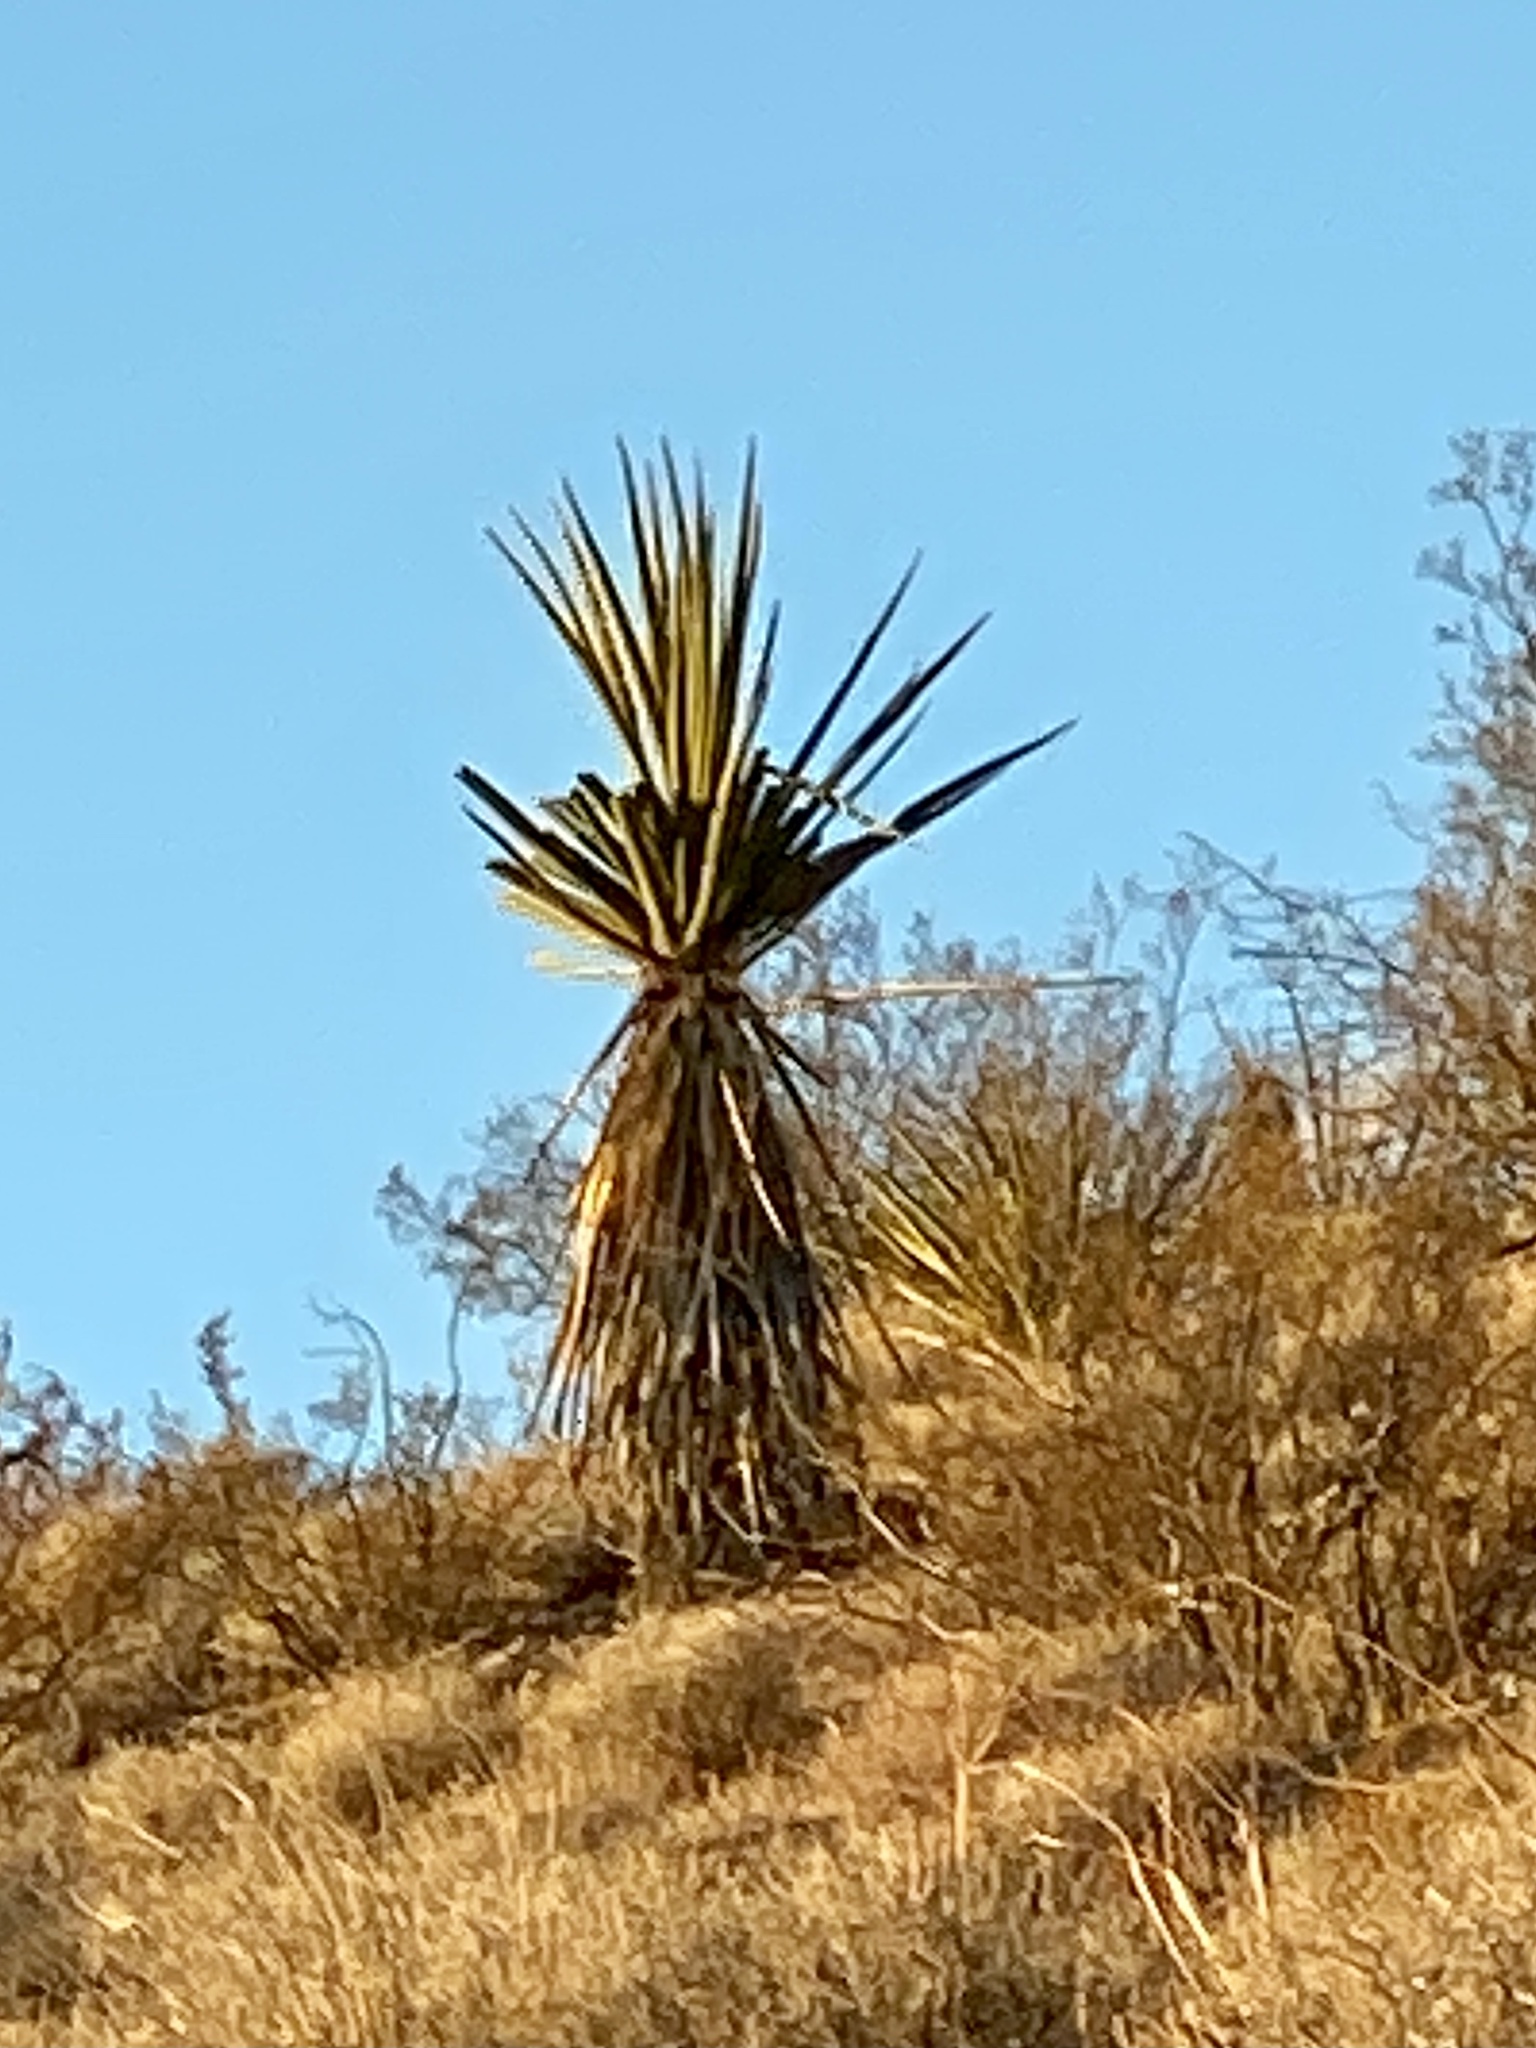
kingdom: Plantae
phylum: Tracheophyta
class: Liliopsida
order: Asparagales
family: Asparagaceae
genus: Yucca
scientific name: Yucca schidigera
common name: Mojave yucca
